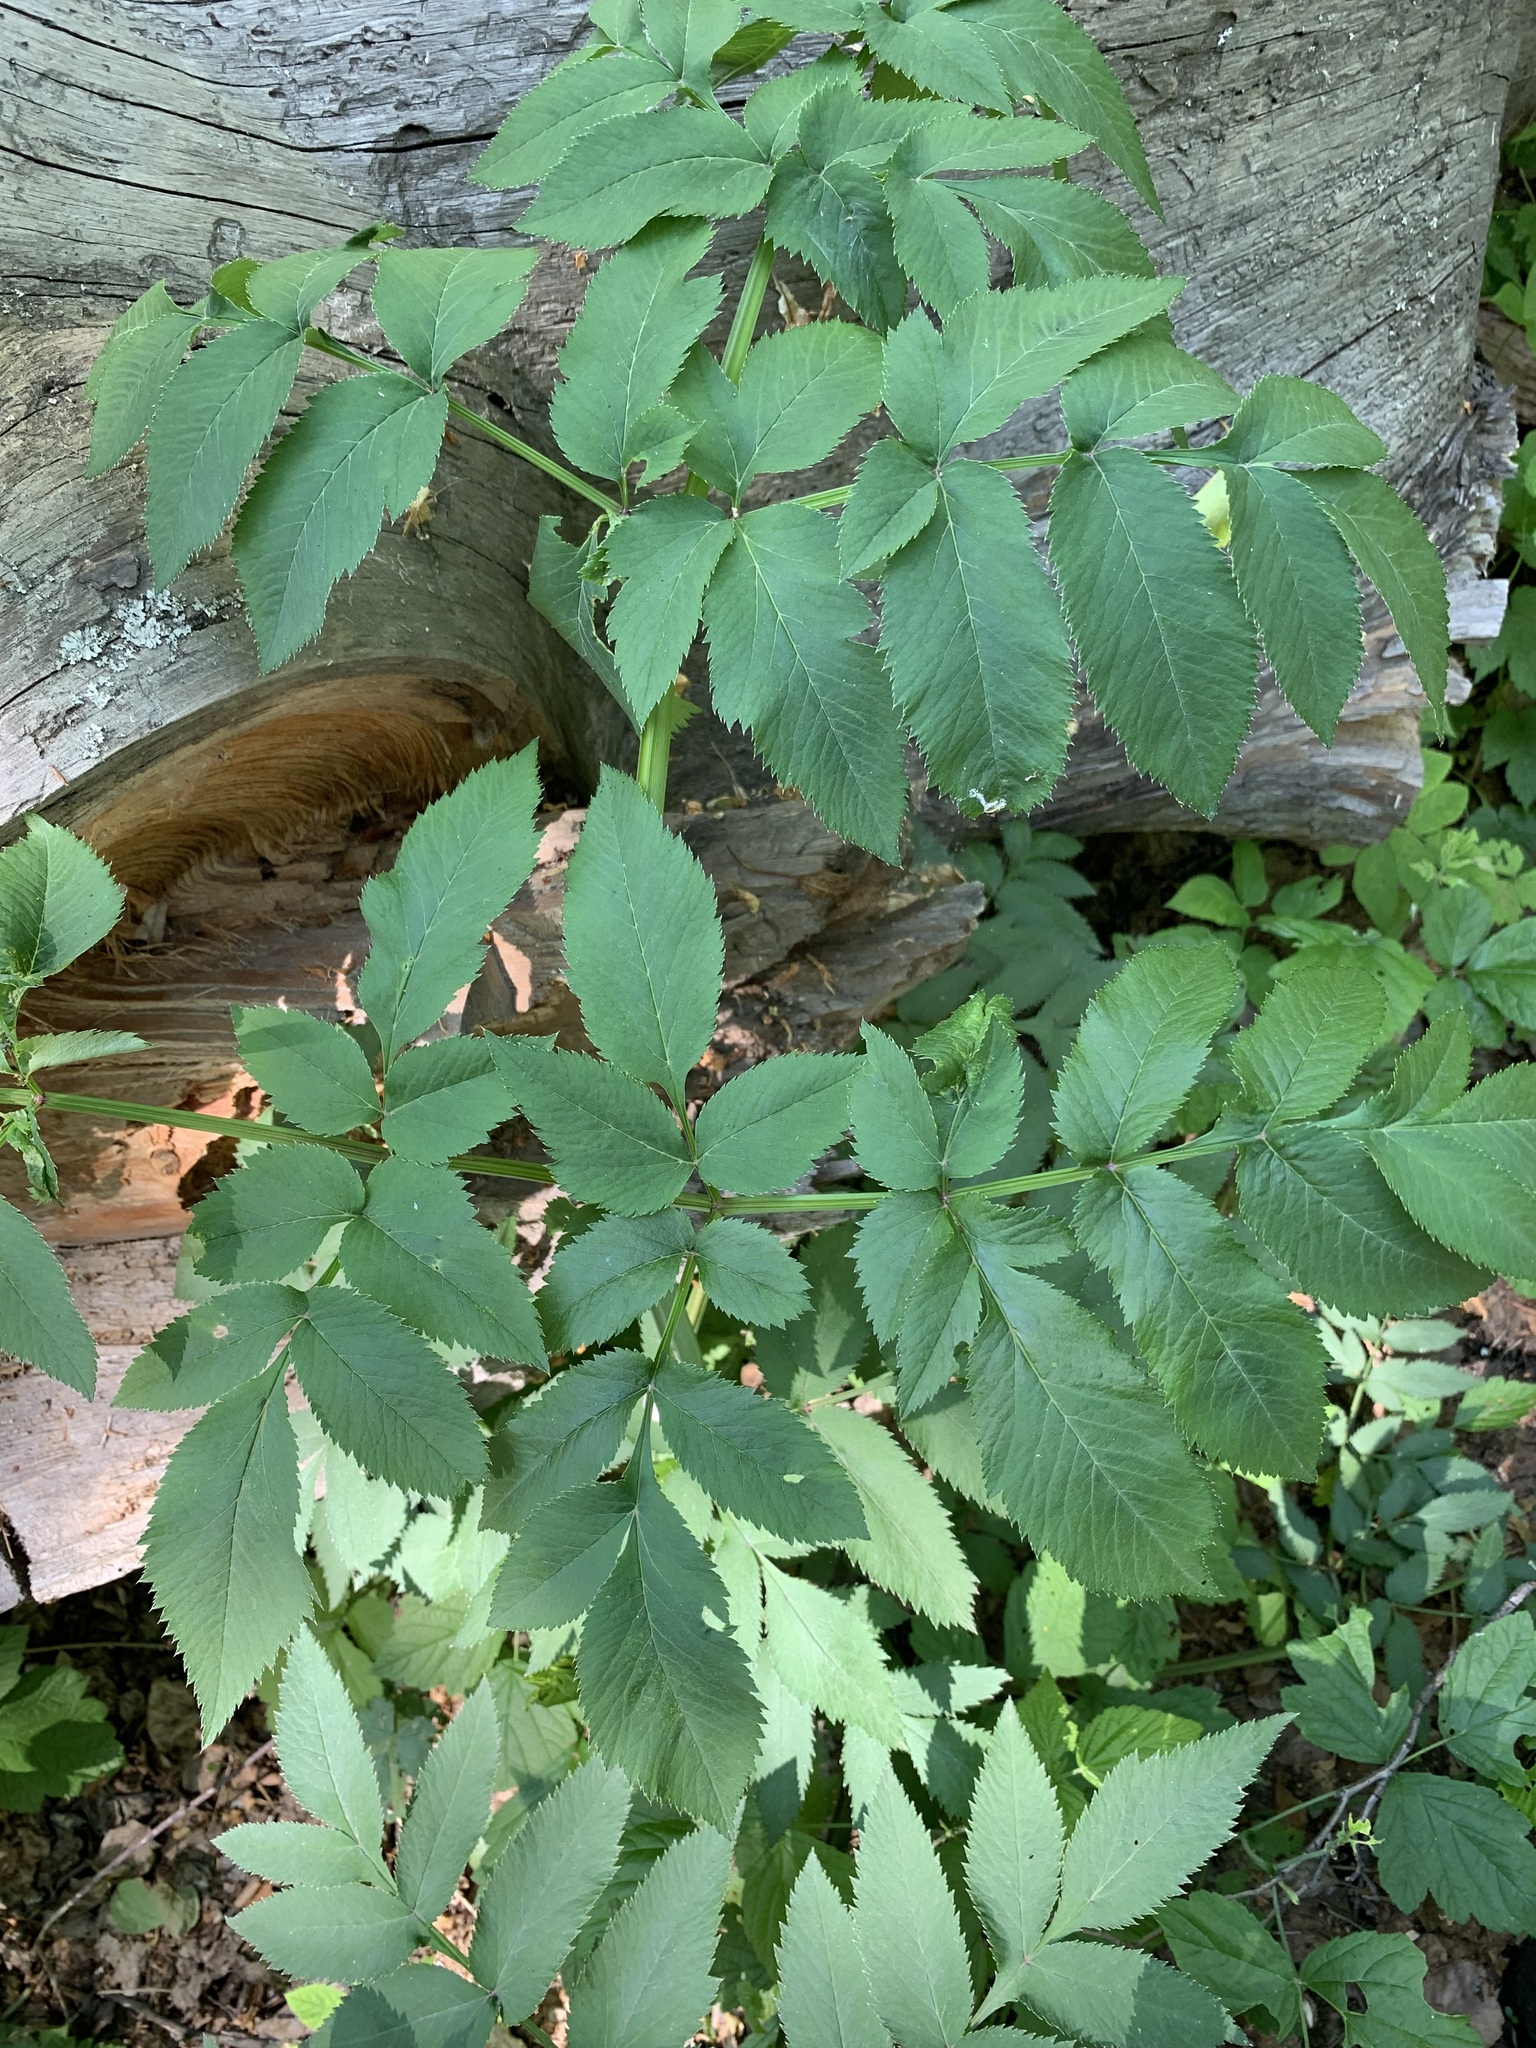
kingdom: Plantae
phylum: Tracheophyta
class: Magnoliopsida
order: Apiales
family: Apiaceae
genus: Angelica
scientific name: Angelica sylvestris
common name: Wild angelica
